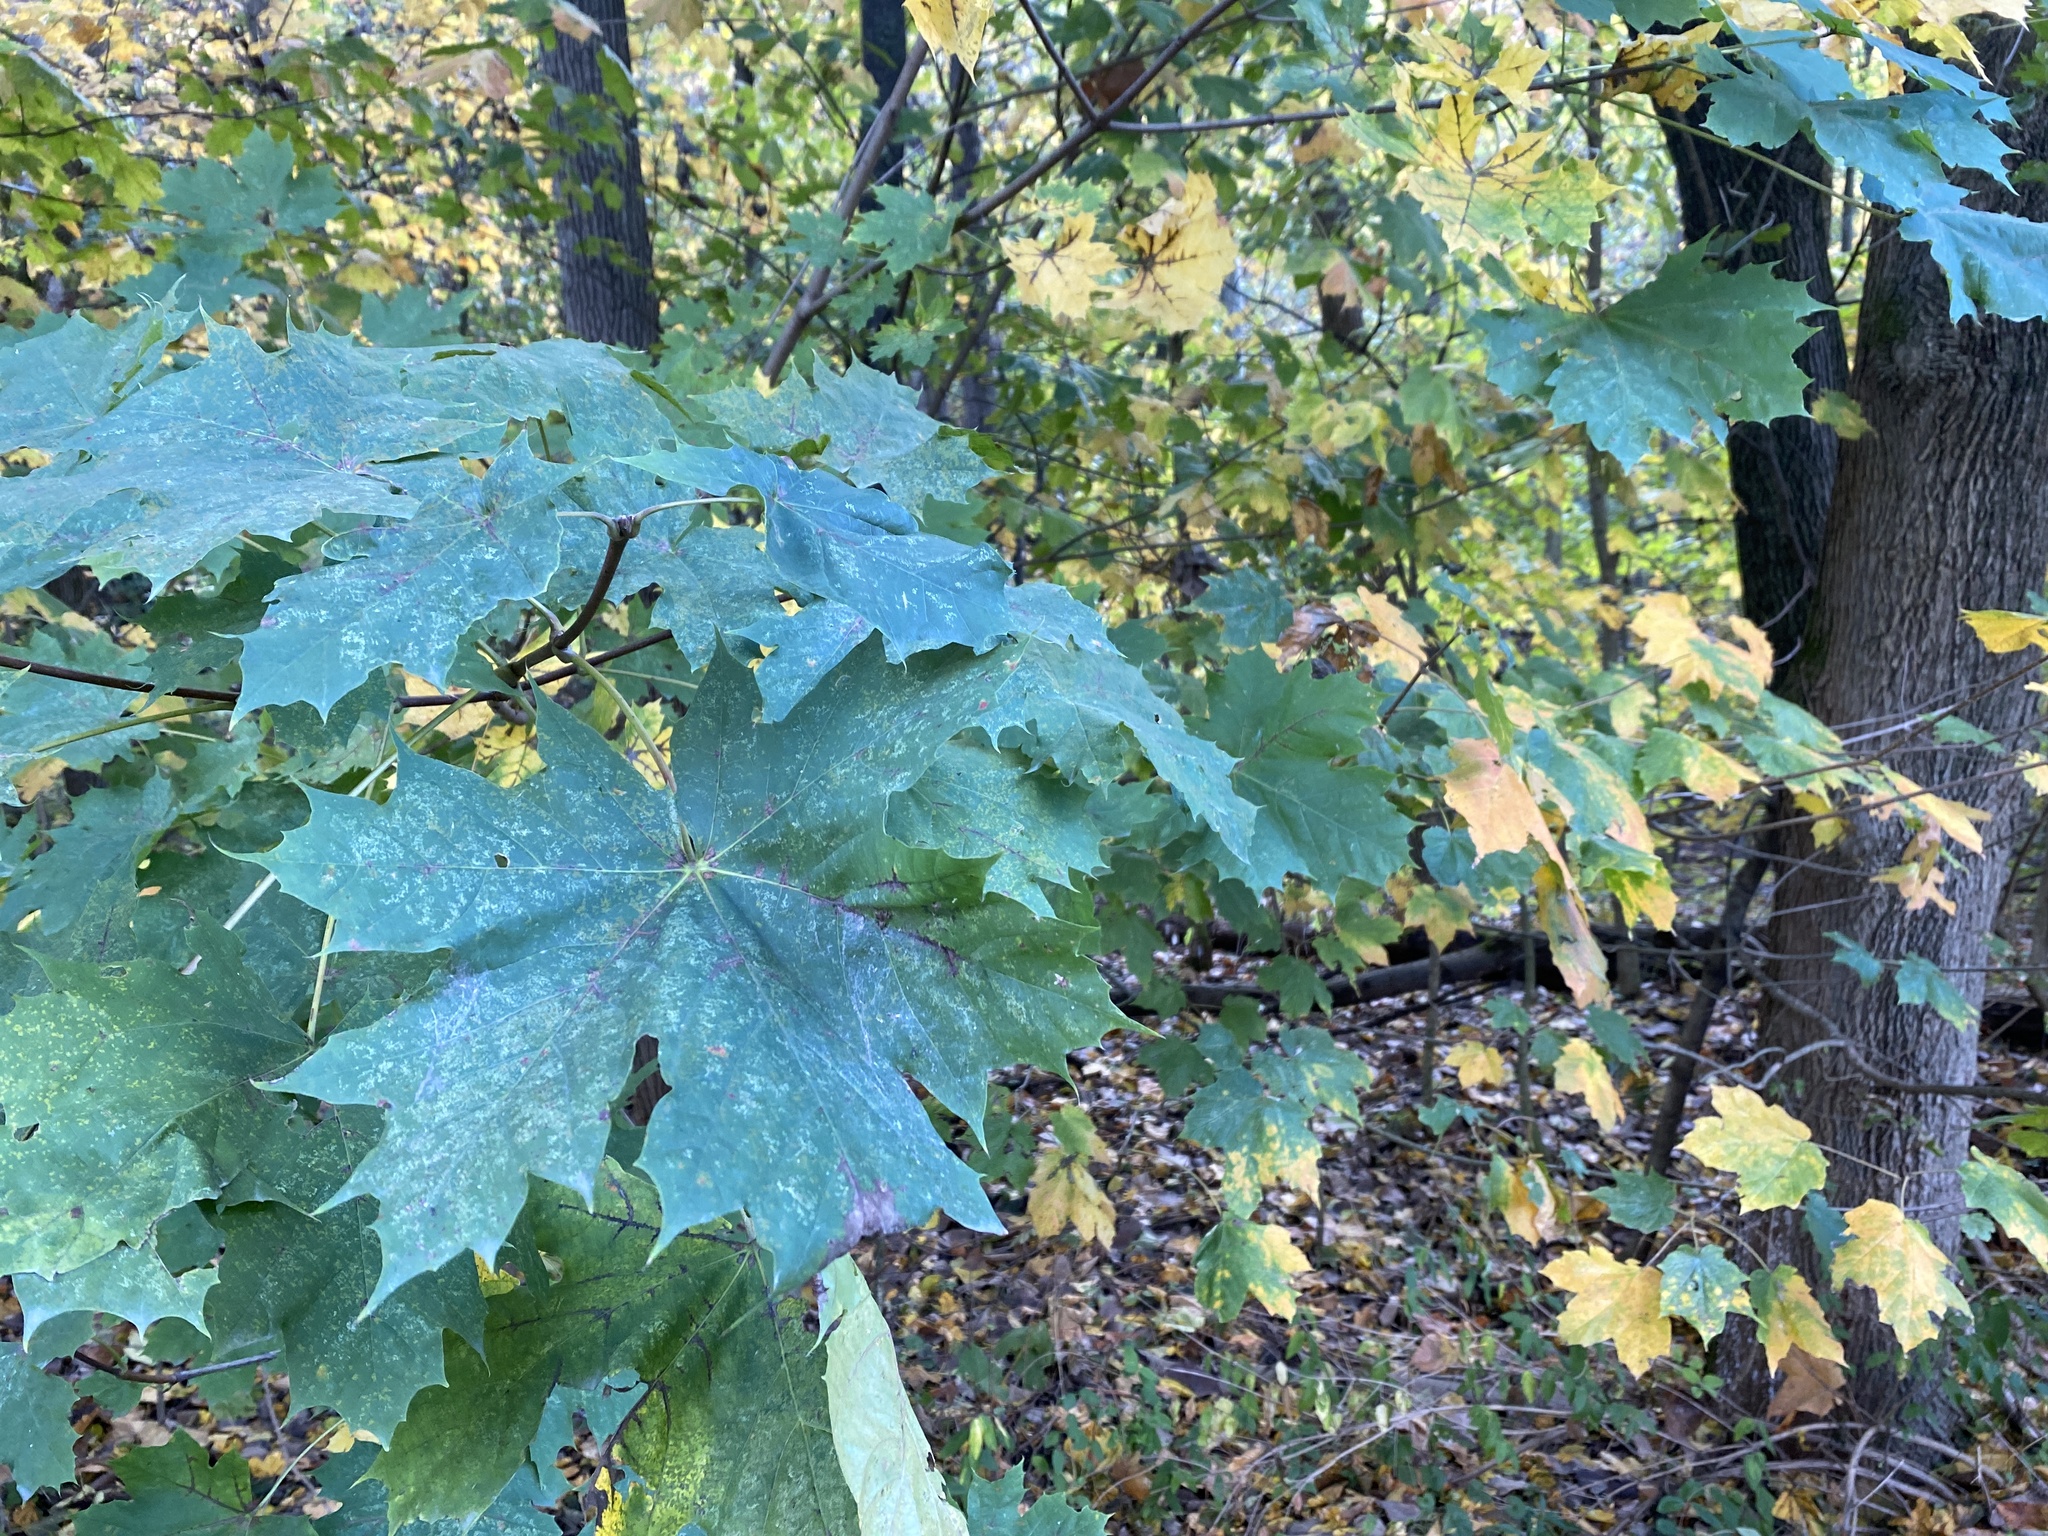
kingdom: Plantae
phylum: Tracheophyta
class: Magnoliopsida
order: Sapindales
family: Sapindaceae
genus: Acer
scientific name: Acer platanoides
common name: Norway maple
